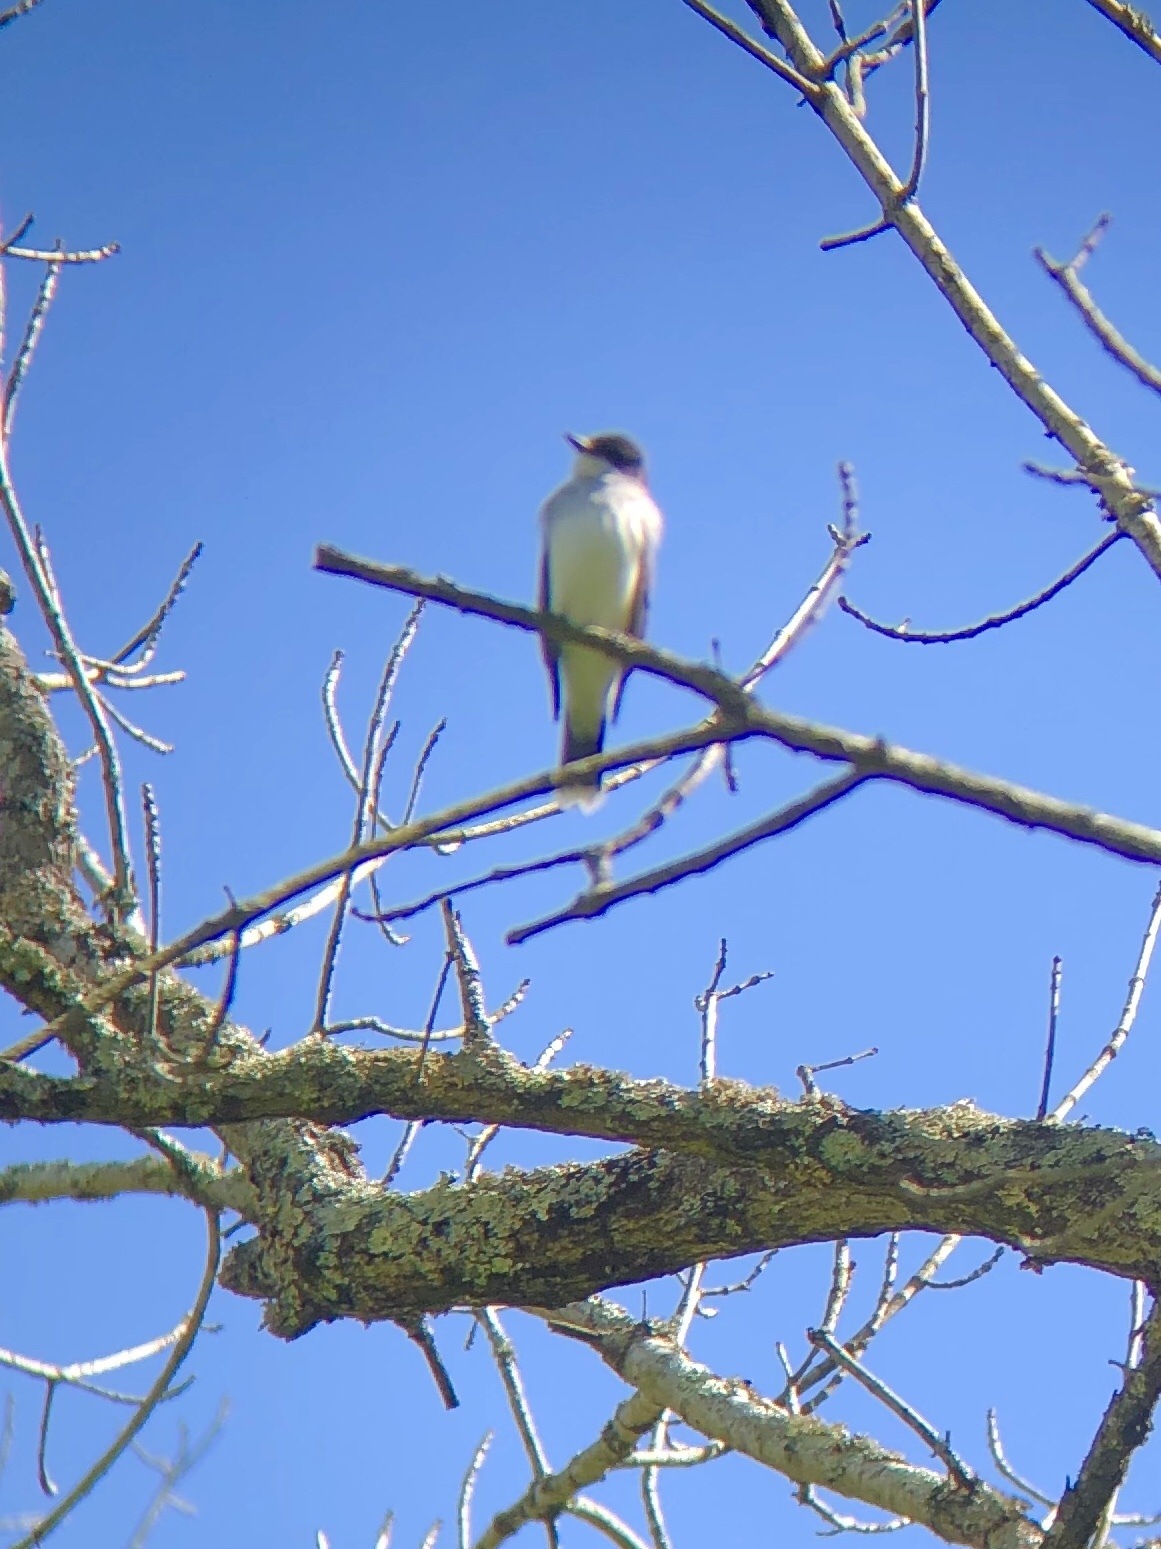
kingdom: Animalia
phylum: Chordata
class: Aves
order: Passeriformes
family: Tyrannidae
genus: Tyrannus
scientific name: Tyrannus tyrannus
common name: Eastern kingbird
